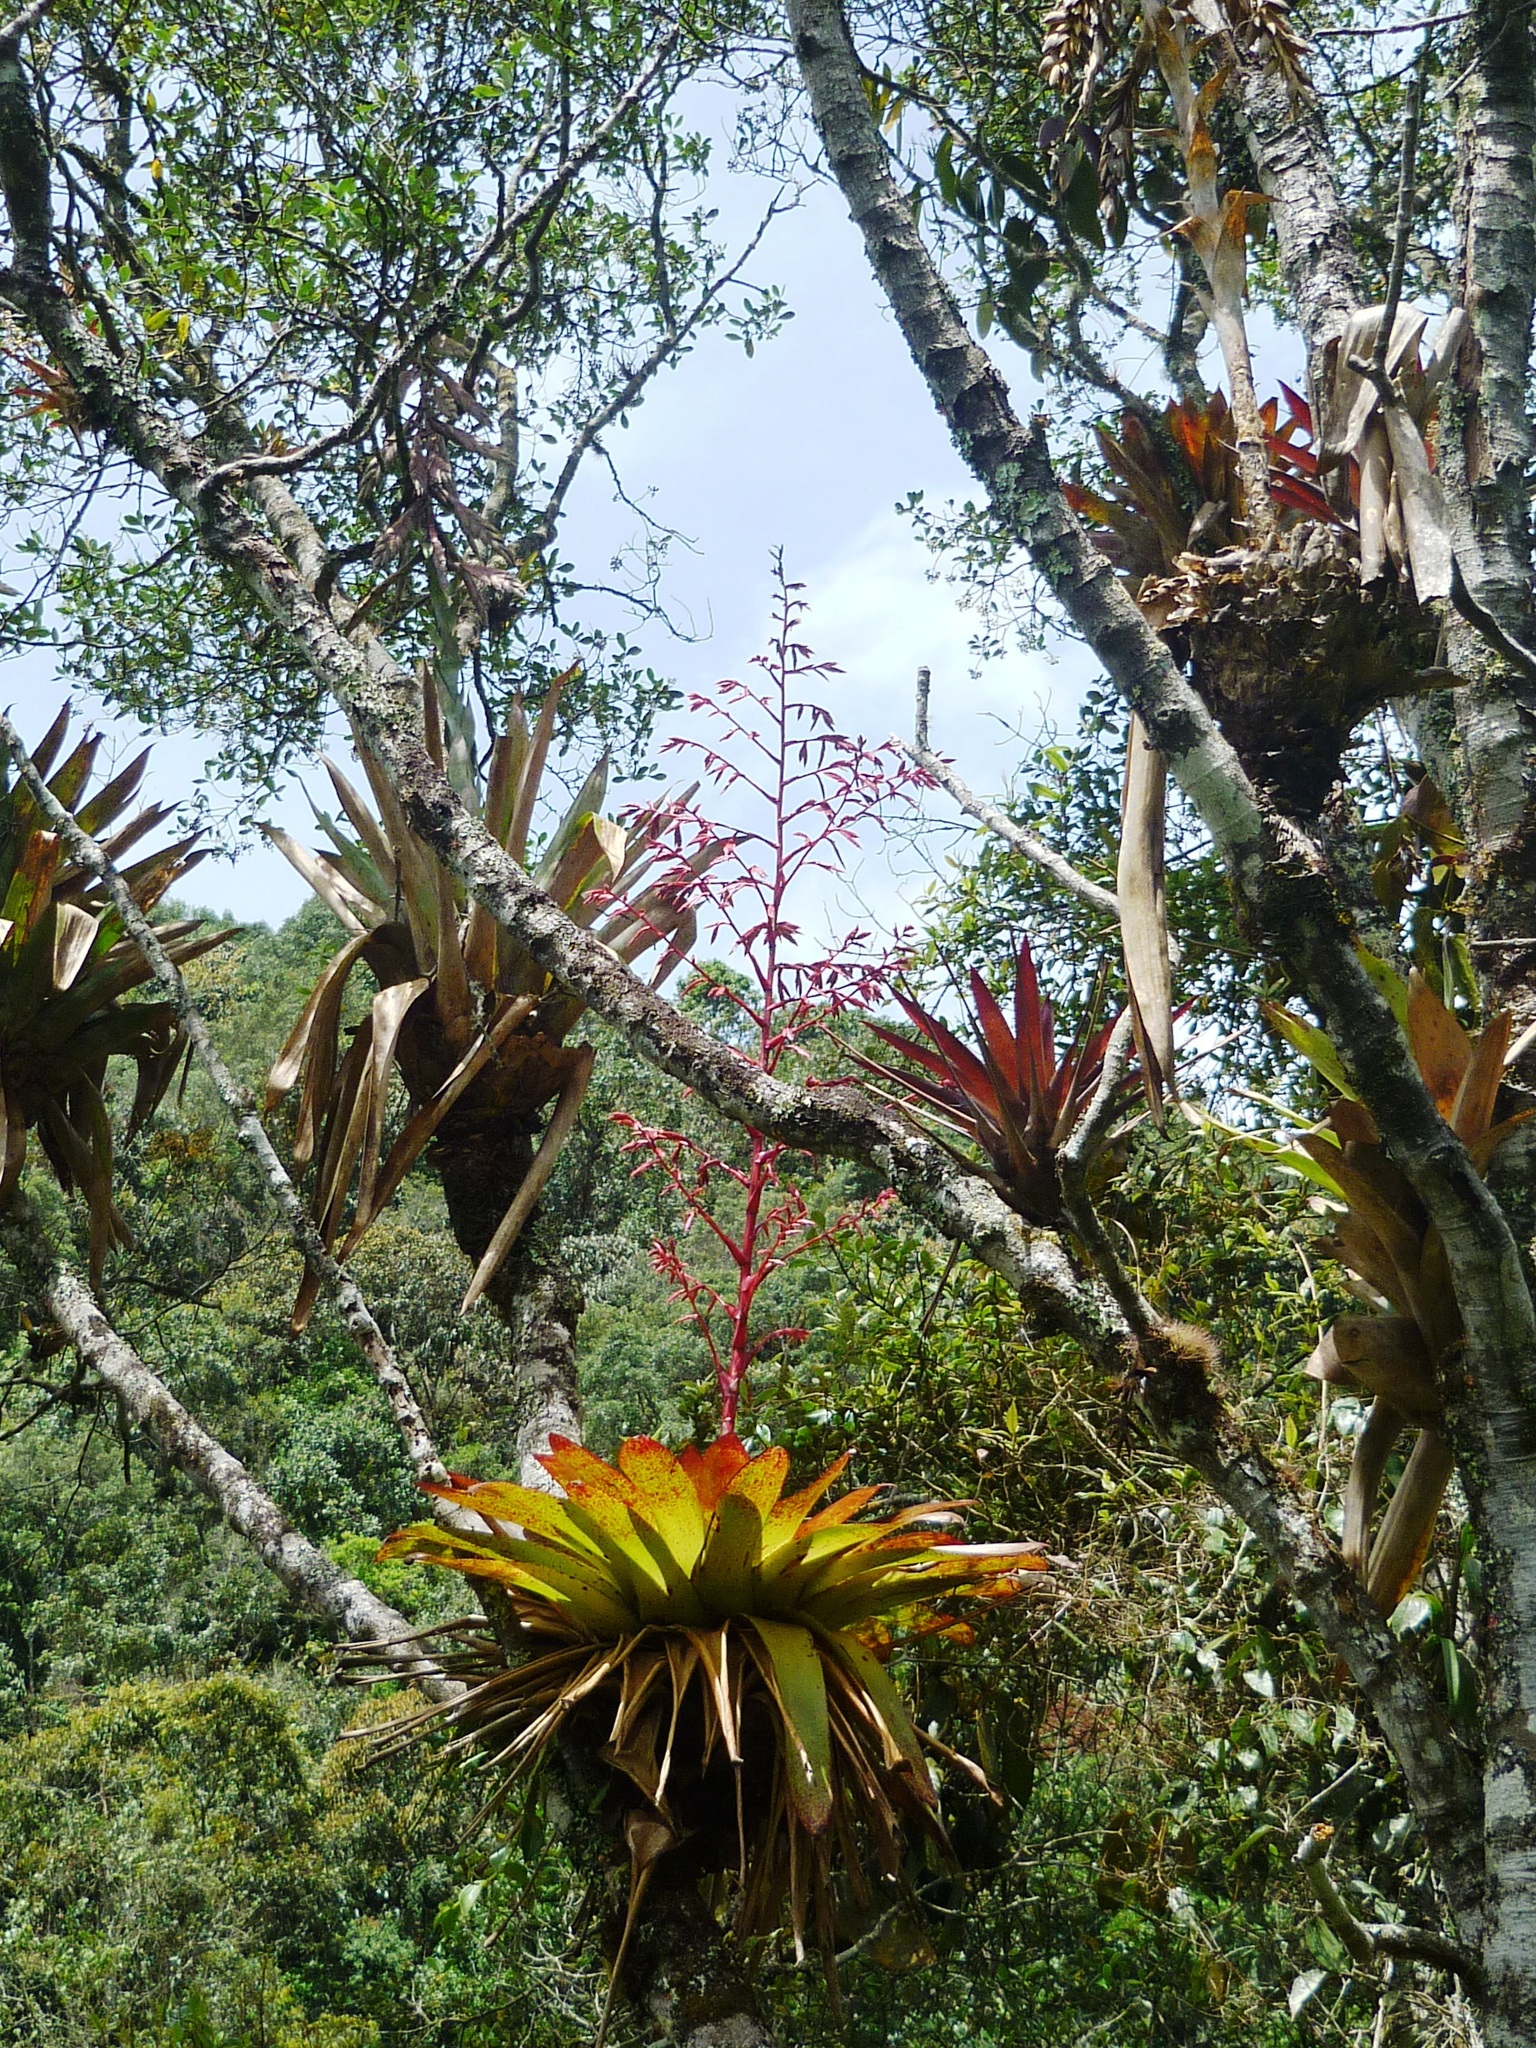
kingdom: Plantae
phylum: Tracheophyta
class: Liliopsida
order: Poales
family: Bromeliaceae
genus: Tillandsia
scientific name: Tillandsia tovarensis
